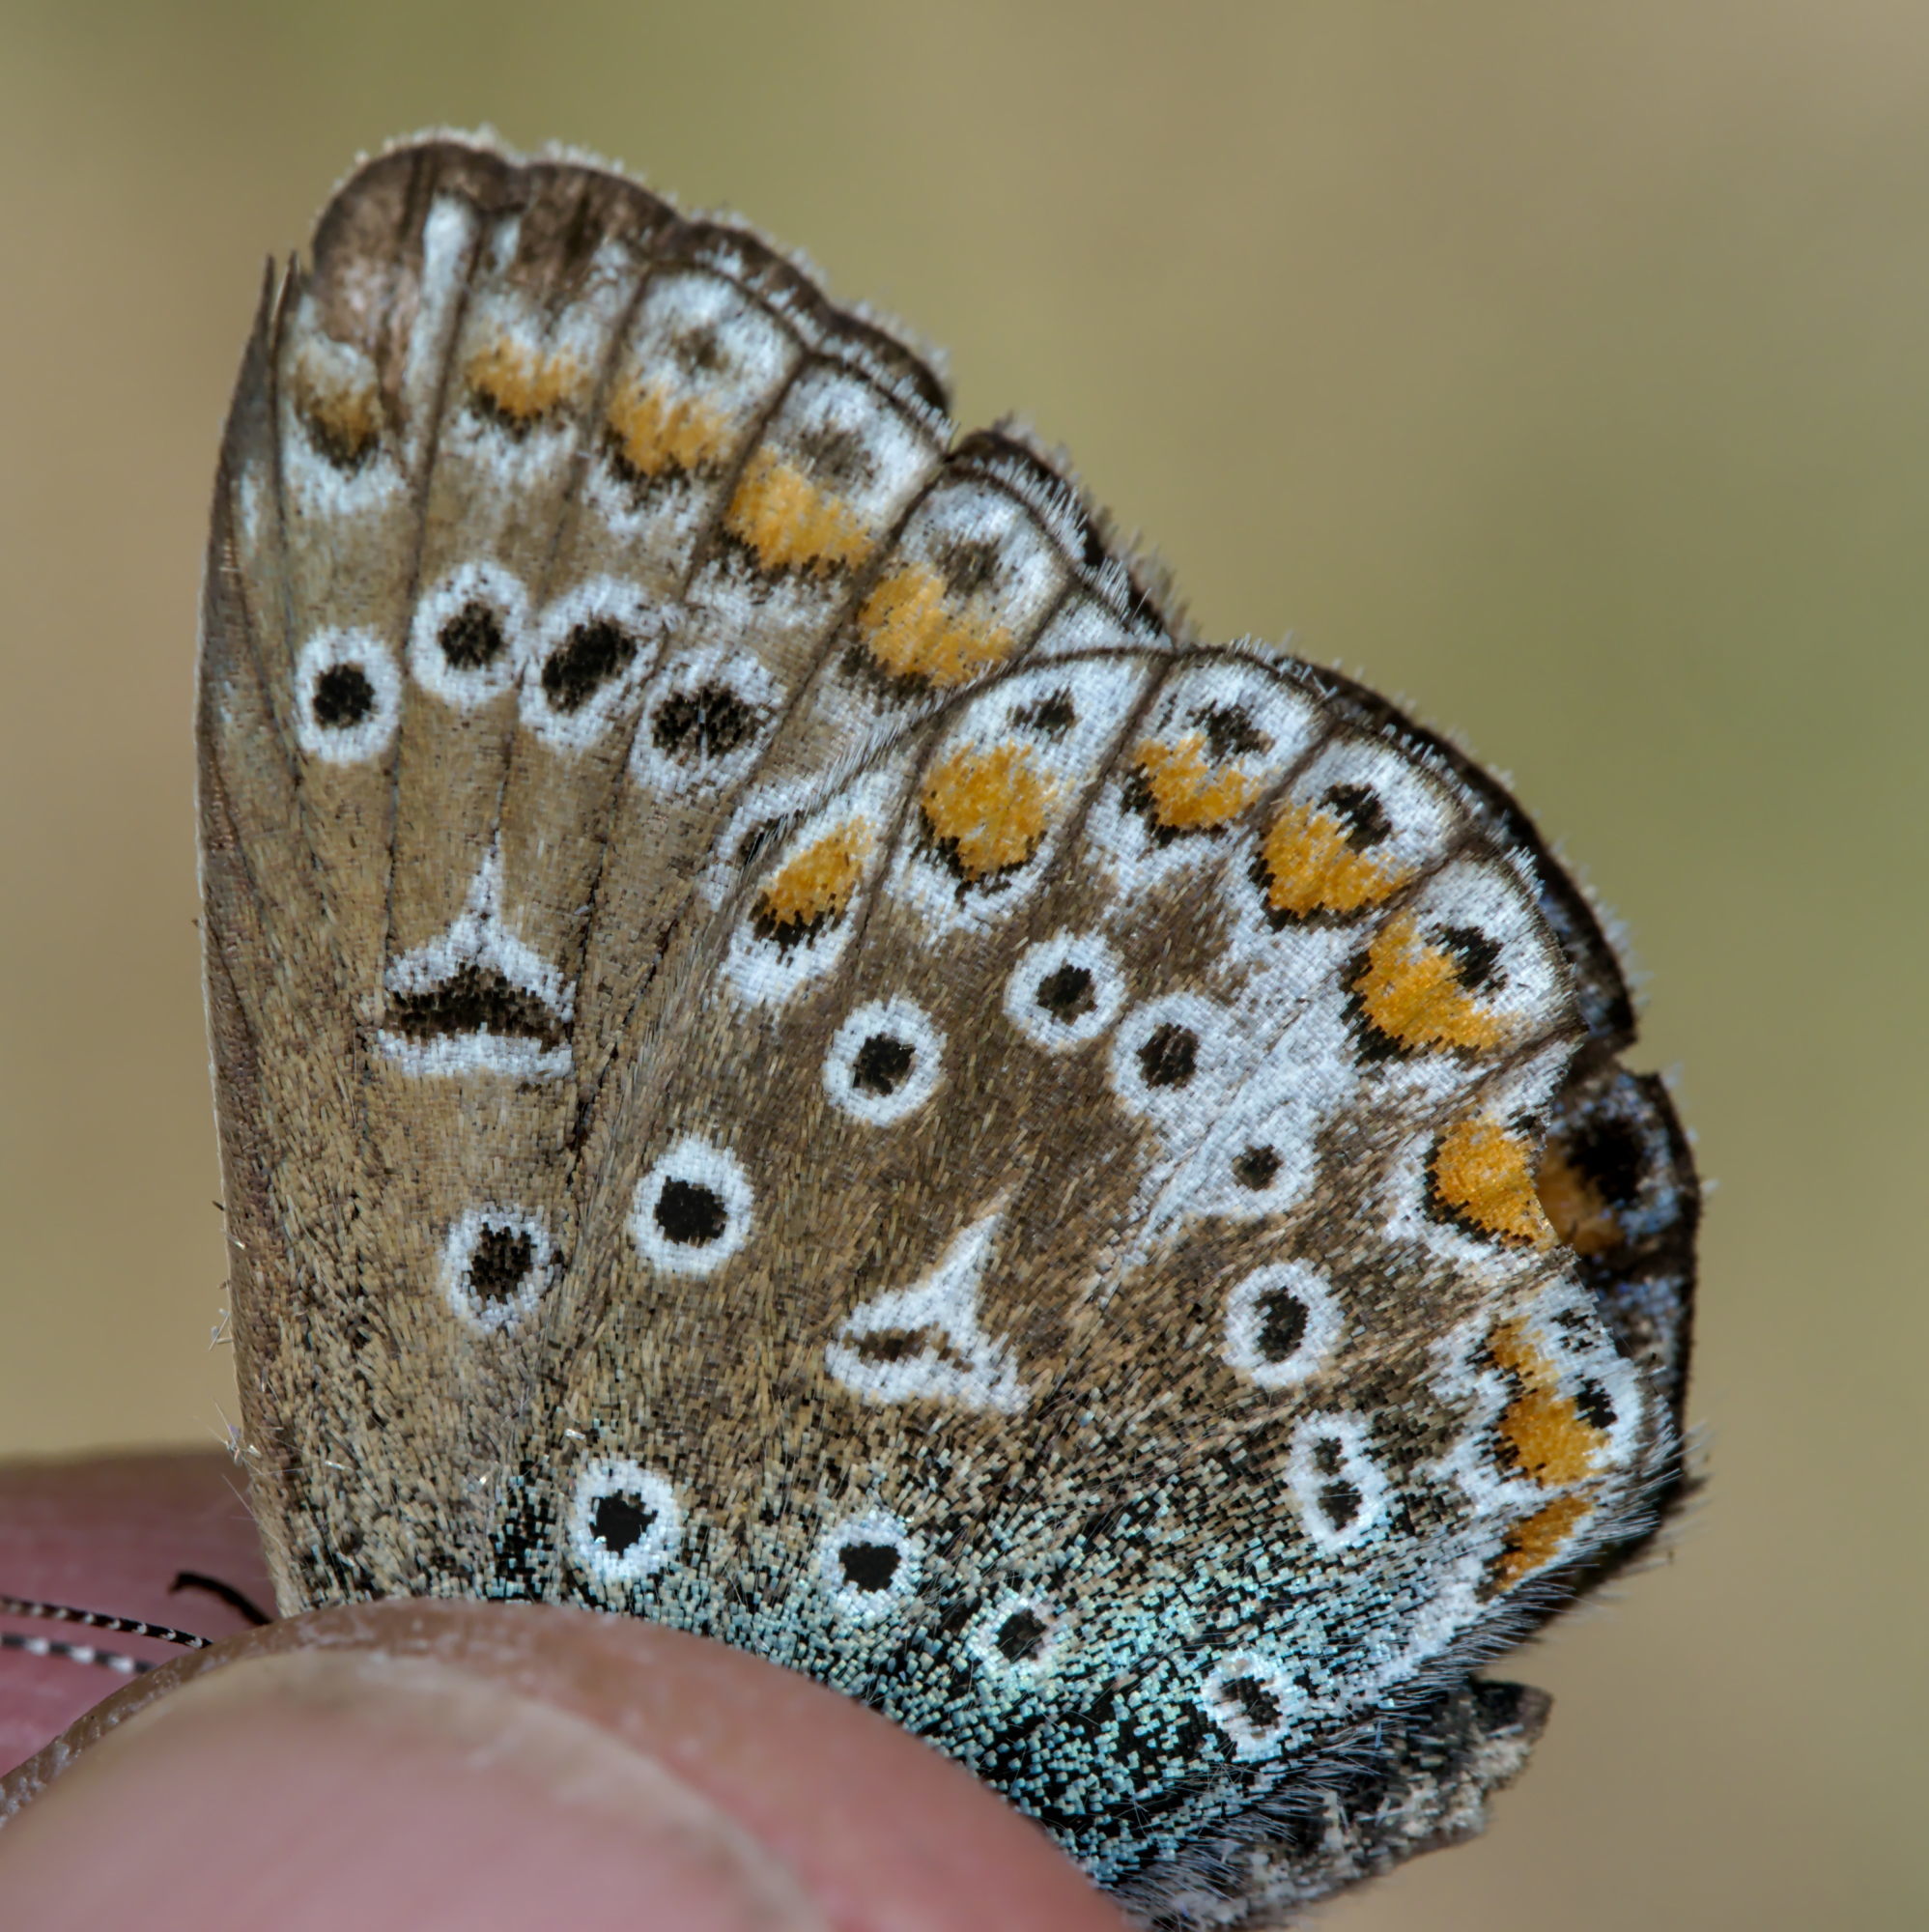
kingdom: Animalia
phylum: Arthropoda
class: Insecta
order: Lepidoptera
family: Lycaenidae
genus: Polyommatus
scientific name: Polyommatus icarus
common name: Common blue
